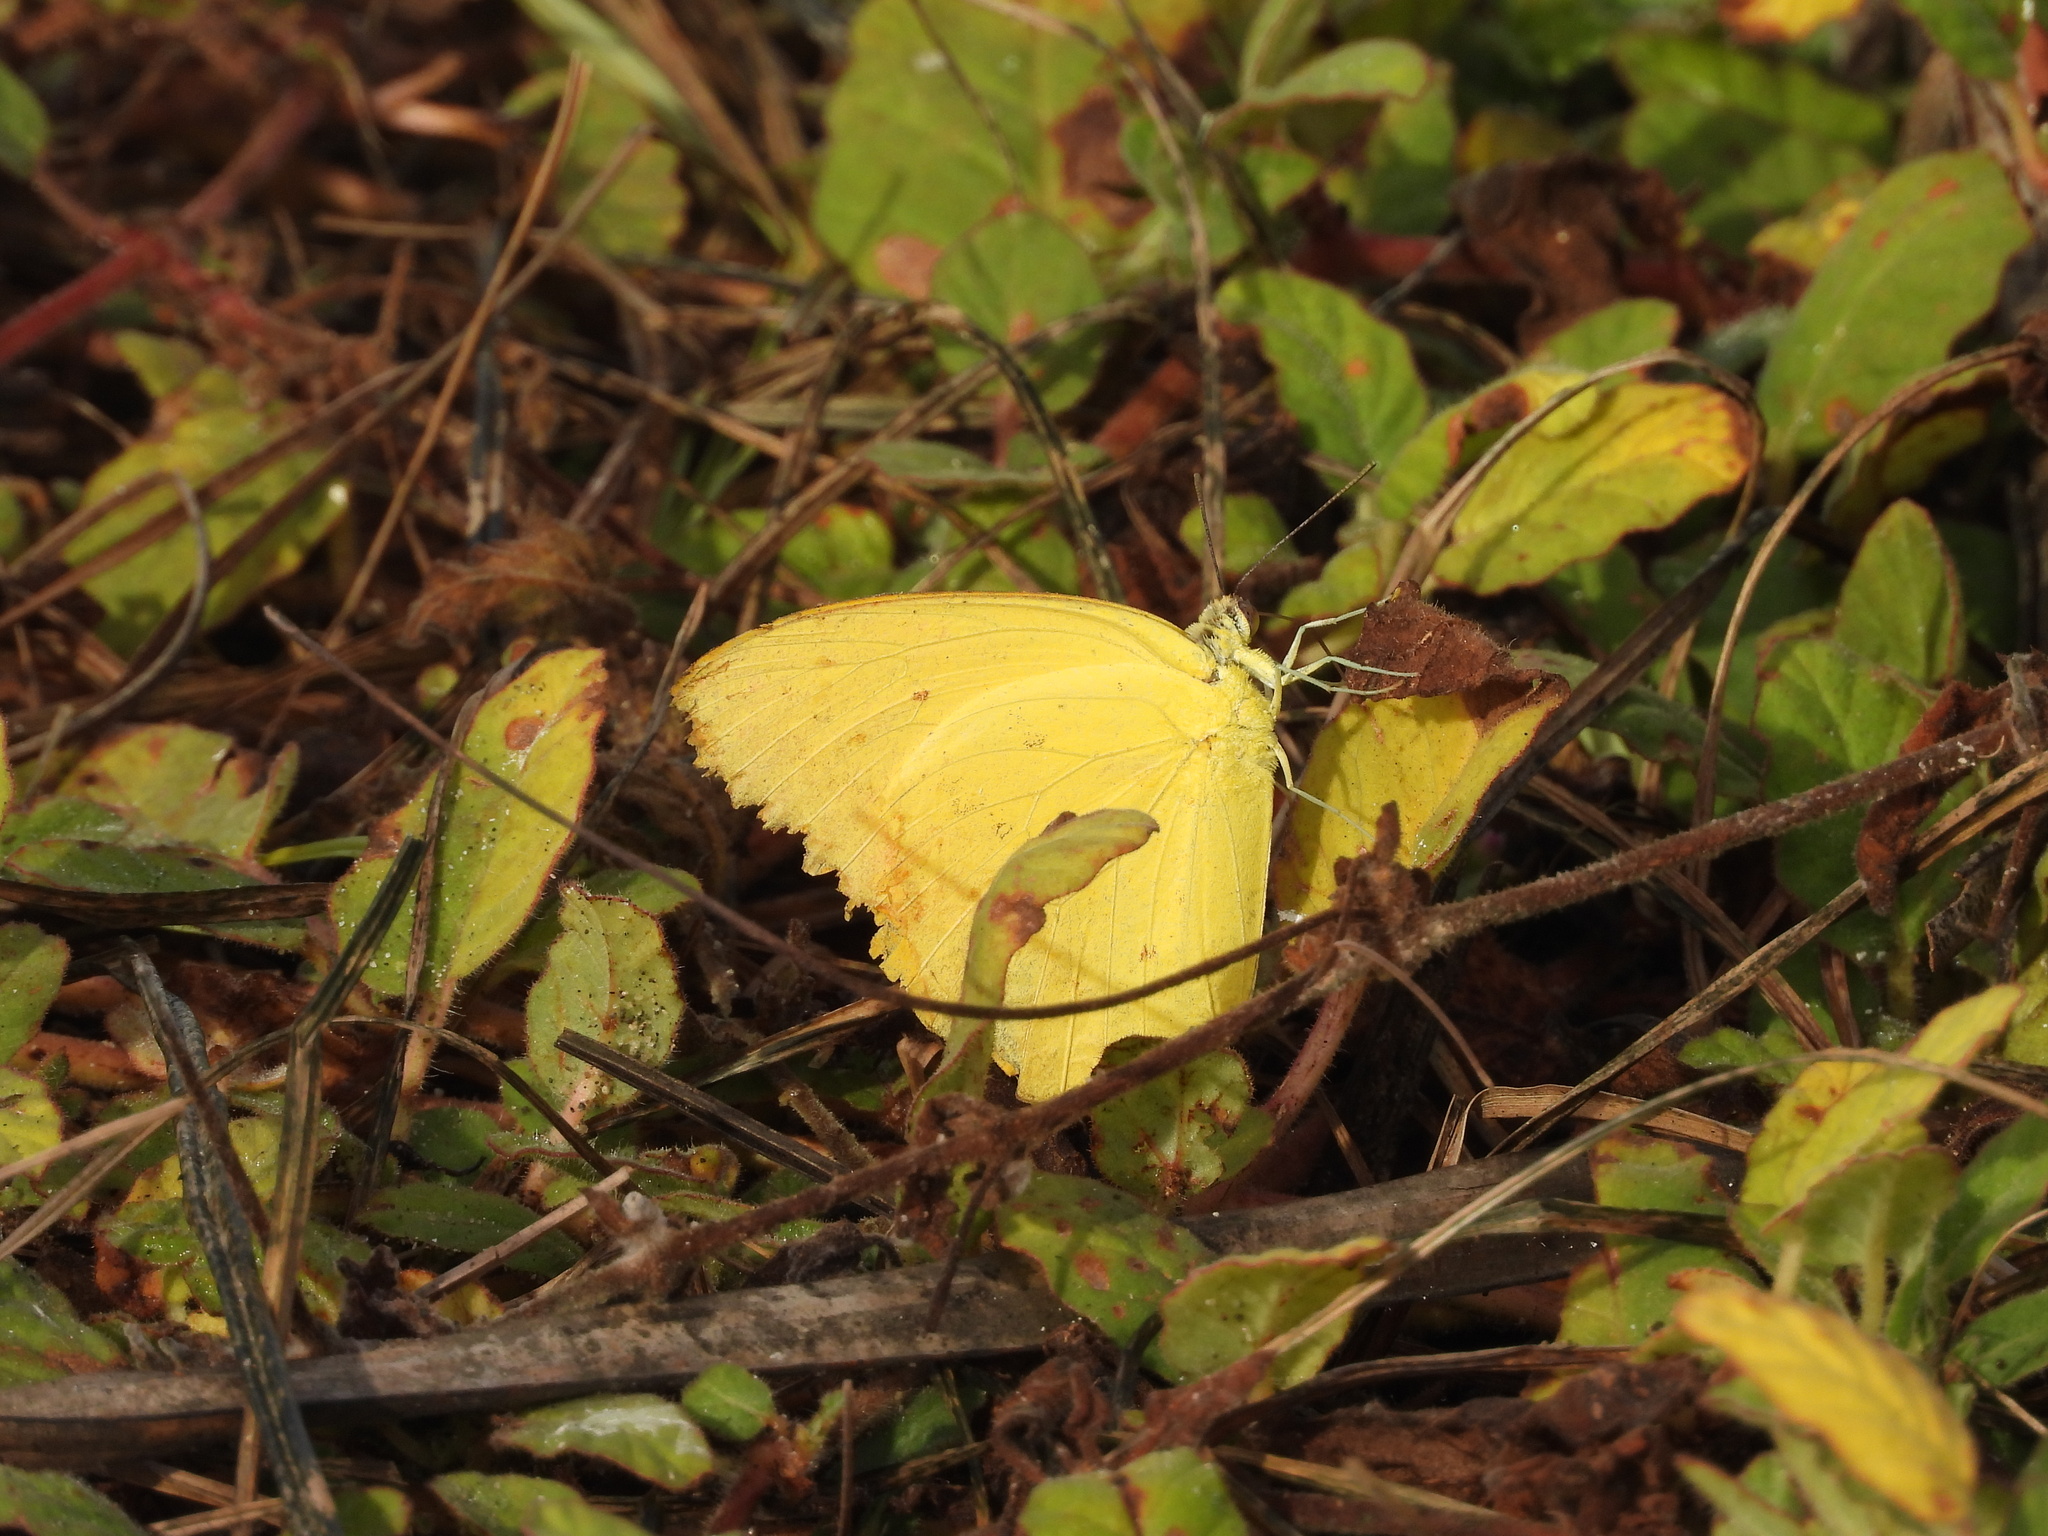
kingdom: Animalia
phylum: Arthropoda
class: Insecta
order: Lepidoptera
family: Pieridae
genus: Phoebis
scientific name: Phoebis agarithe
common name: Large orange sulphur
